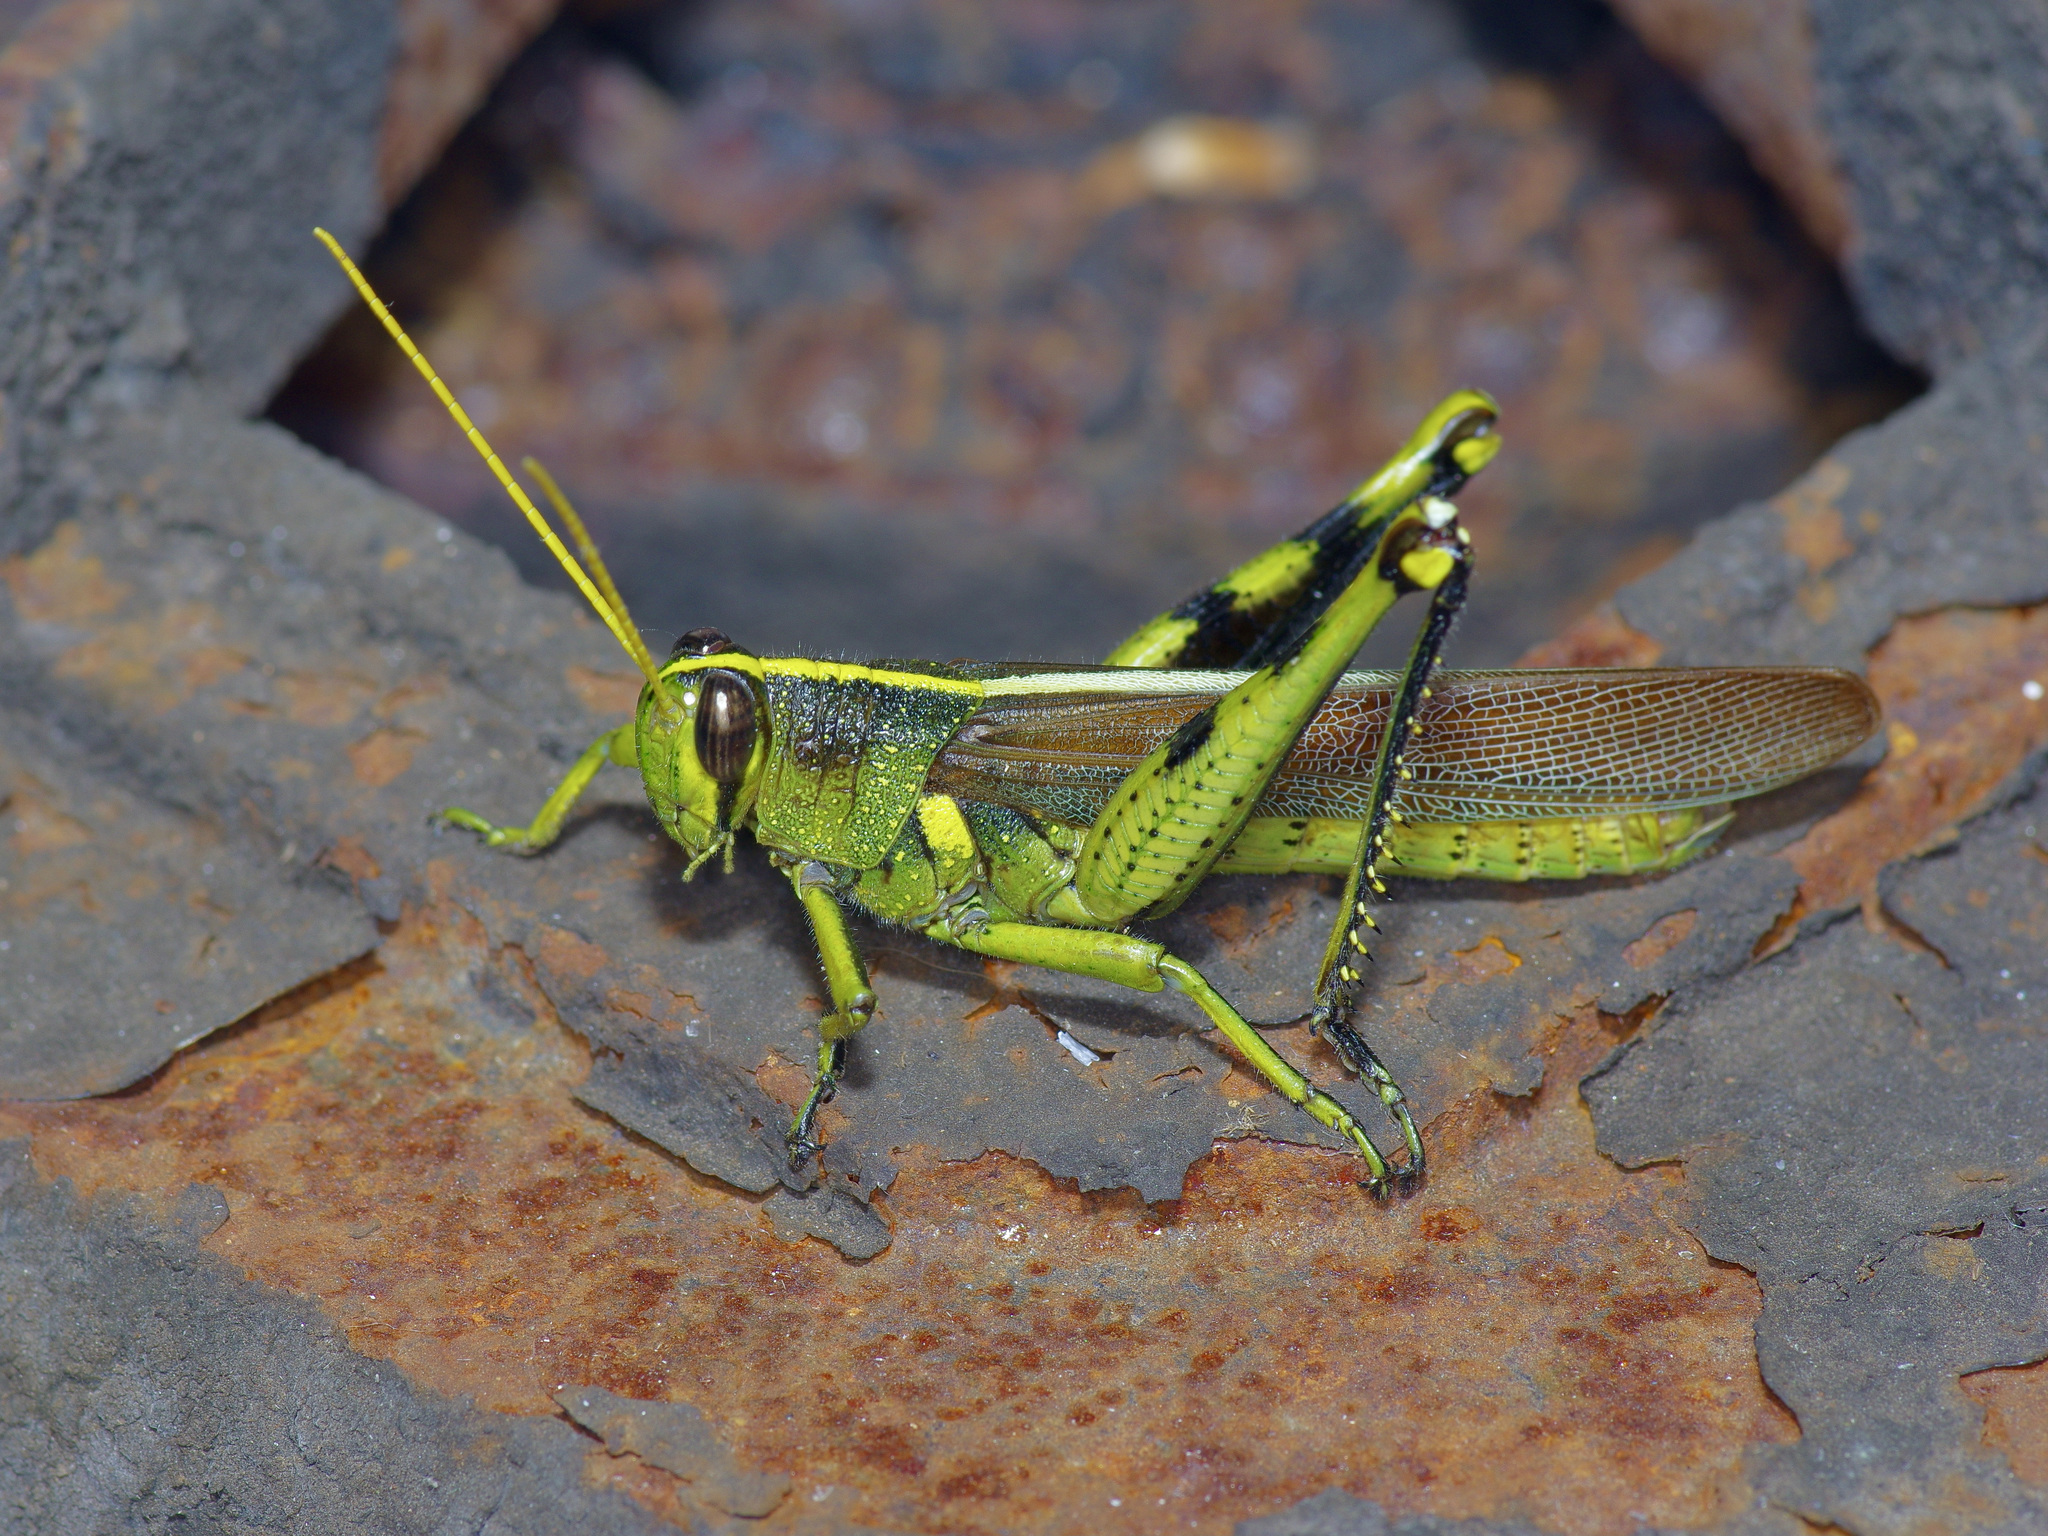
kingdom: Animalia
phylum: Arthropoda
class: Insecta
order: Orthoptera
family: Acrididae
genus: Schistocerca
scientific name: Schistocerca obscura
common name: Obscure bird grasshopper
